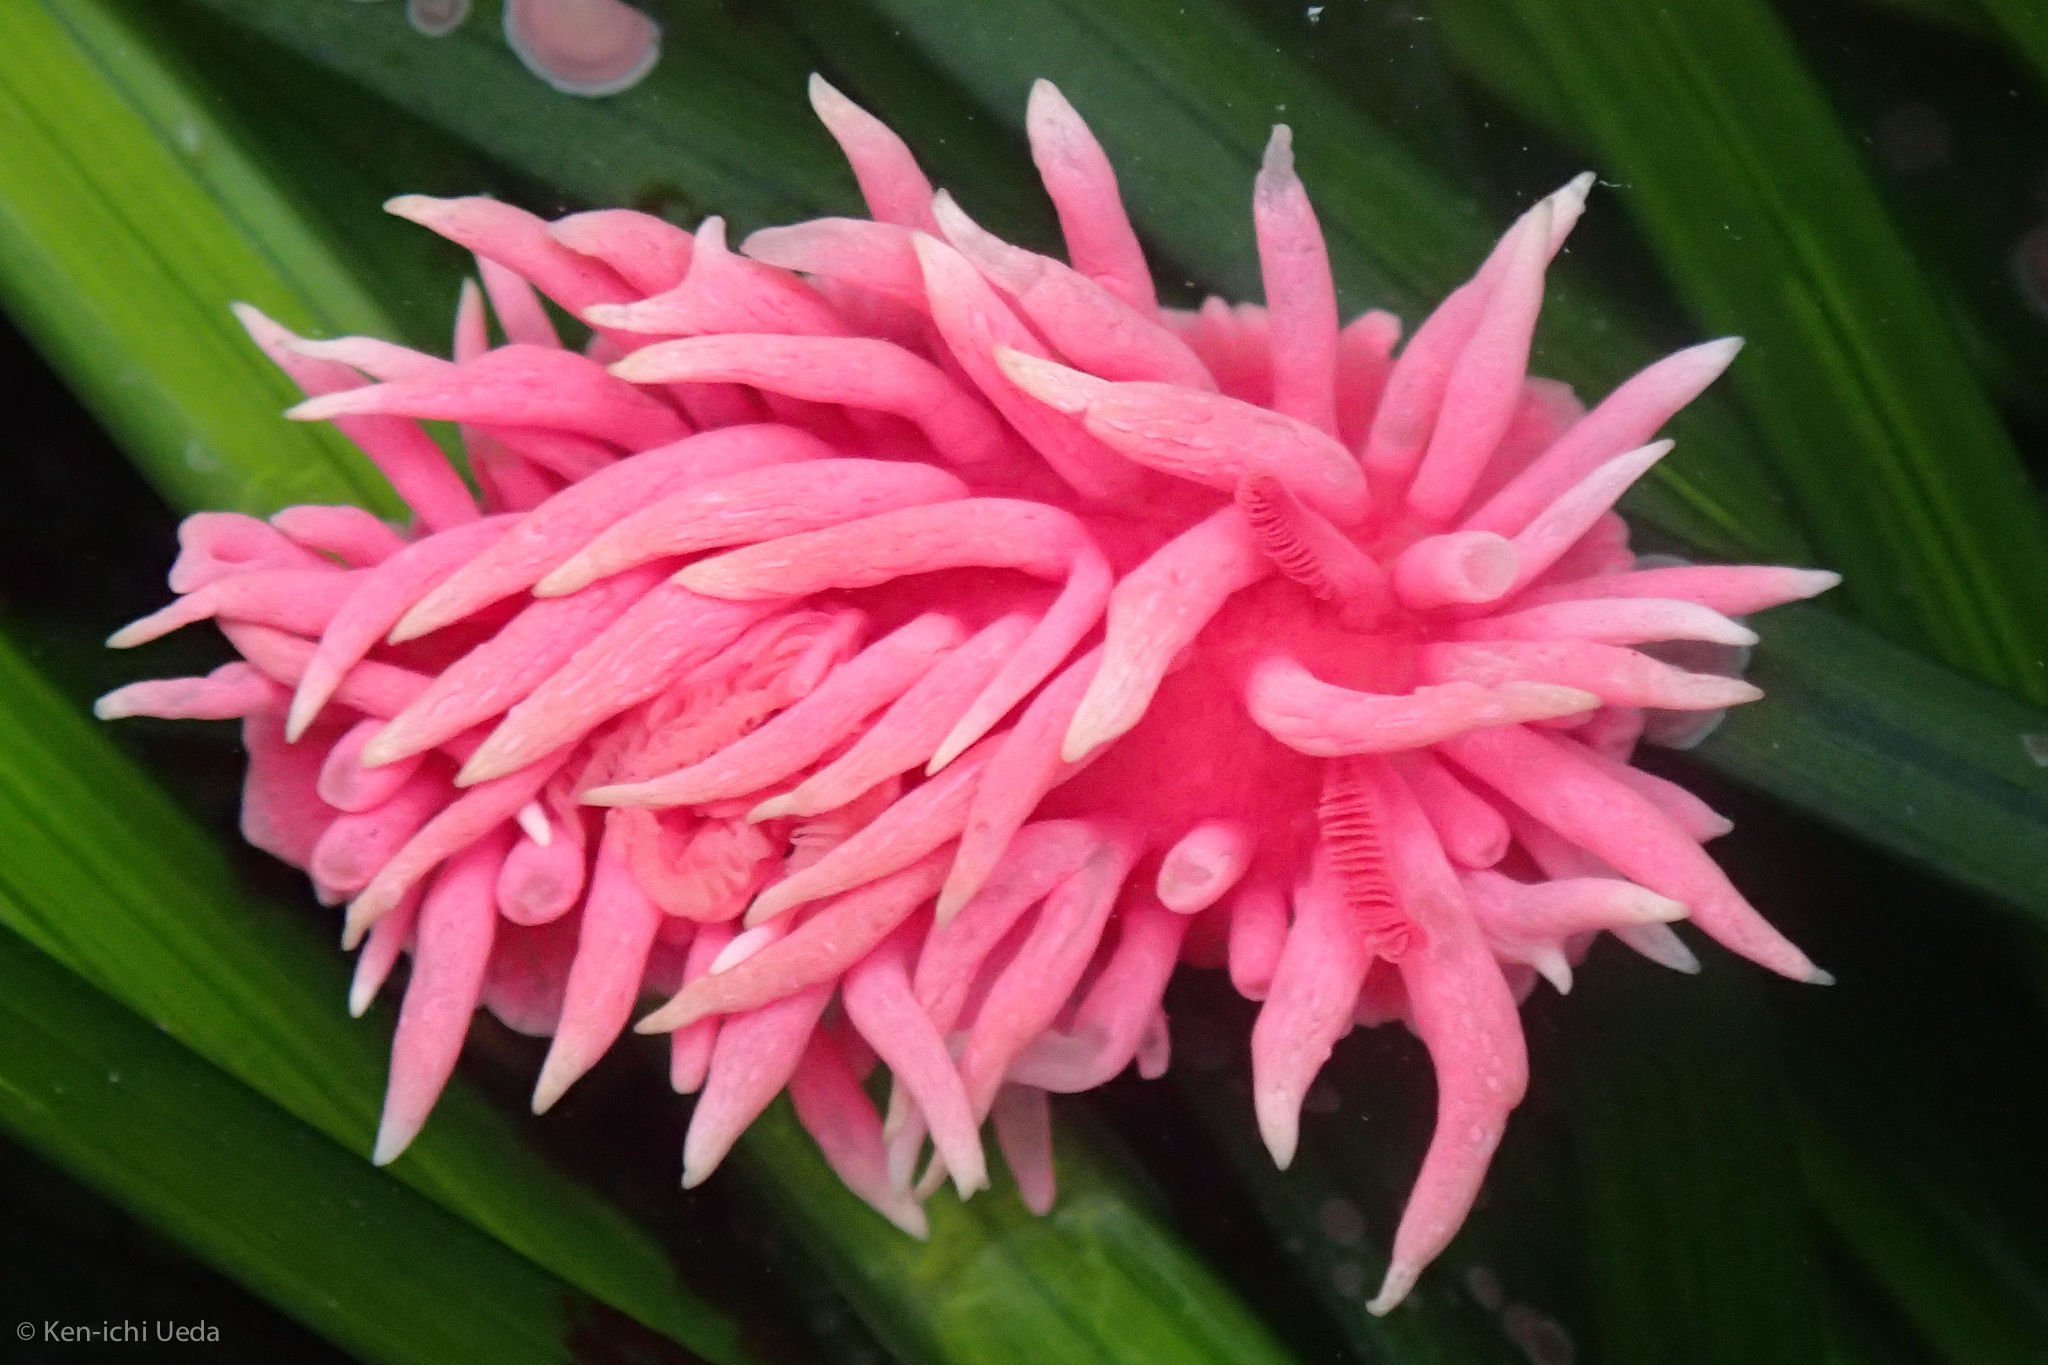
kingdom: Animalia
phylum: Mollusca
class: Gastropoda
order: Nudibranchia
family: Goniodorididae
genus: Okenia
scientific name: Okenia
